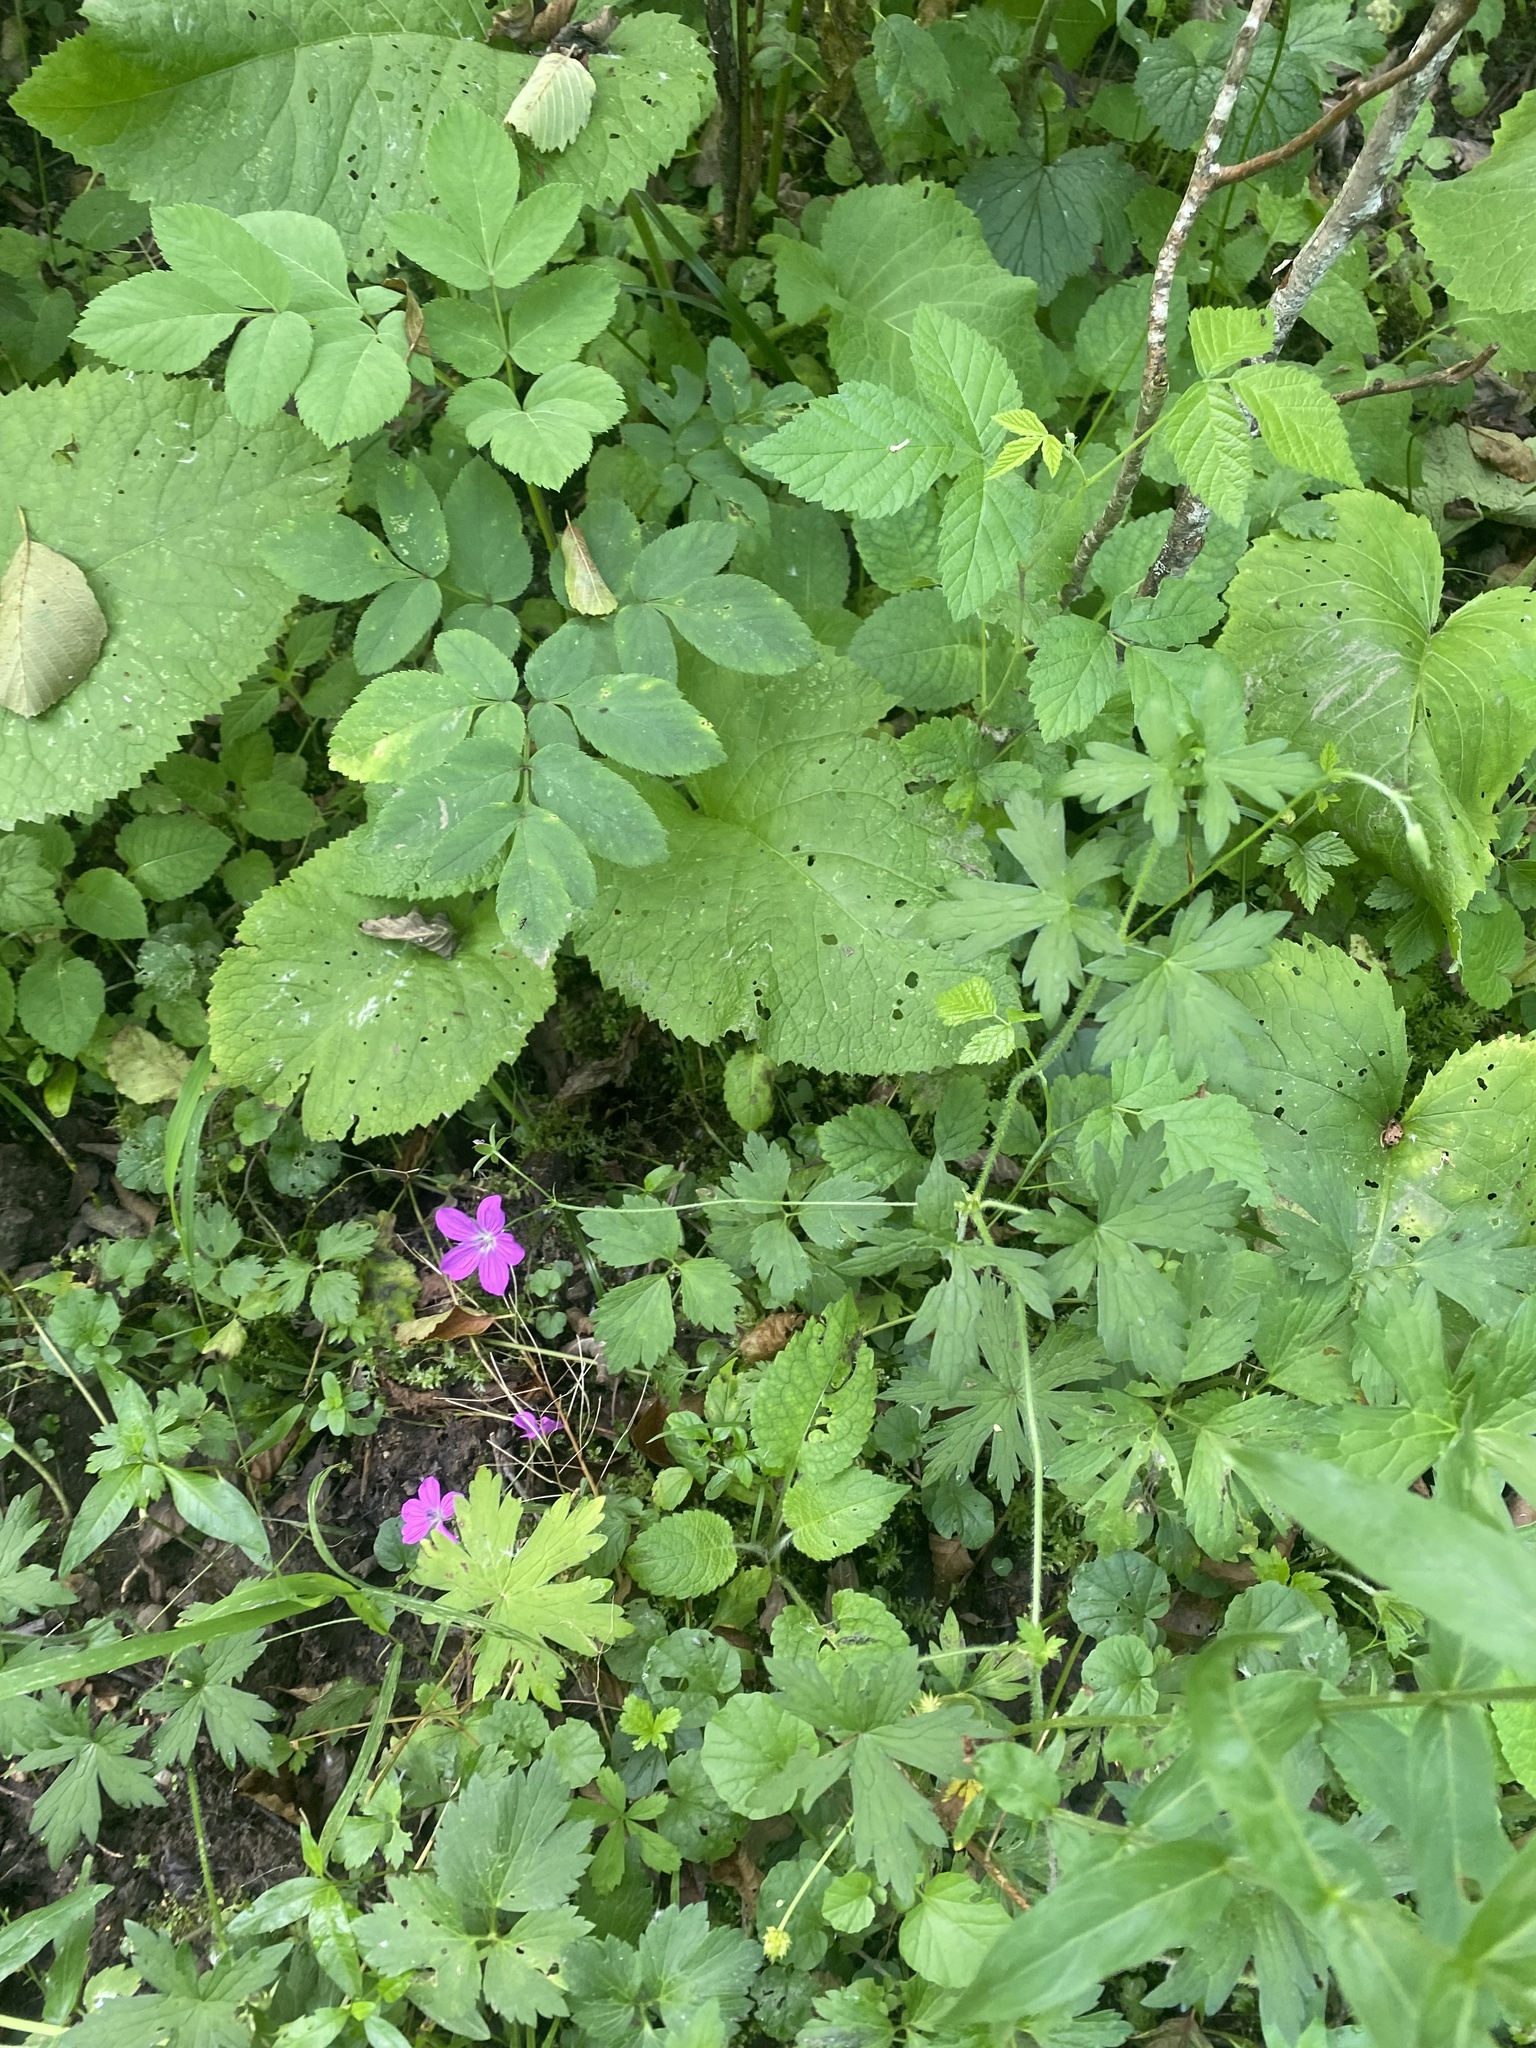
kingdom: Plantae
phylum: Tracheophyta
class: Magnoliopsida
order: Geraniales
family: Geraniaceae
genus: Geranium
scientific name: Geranium palustre
